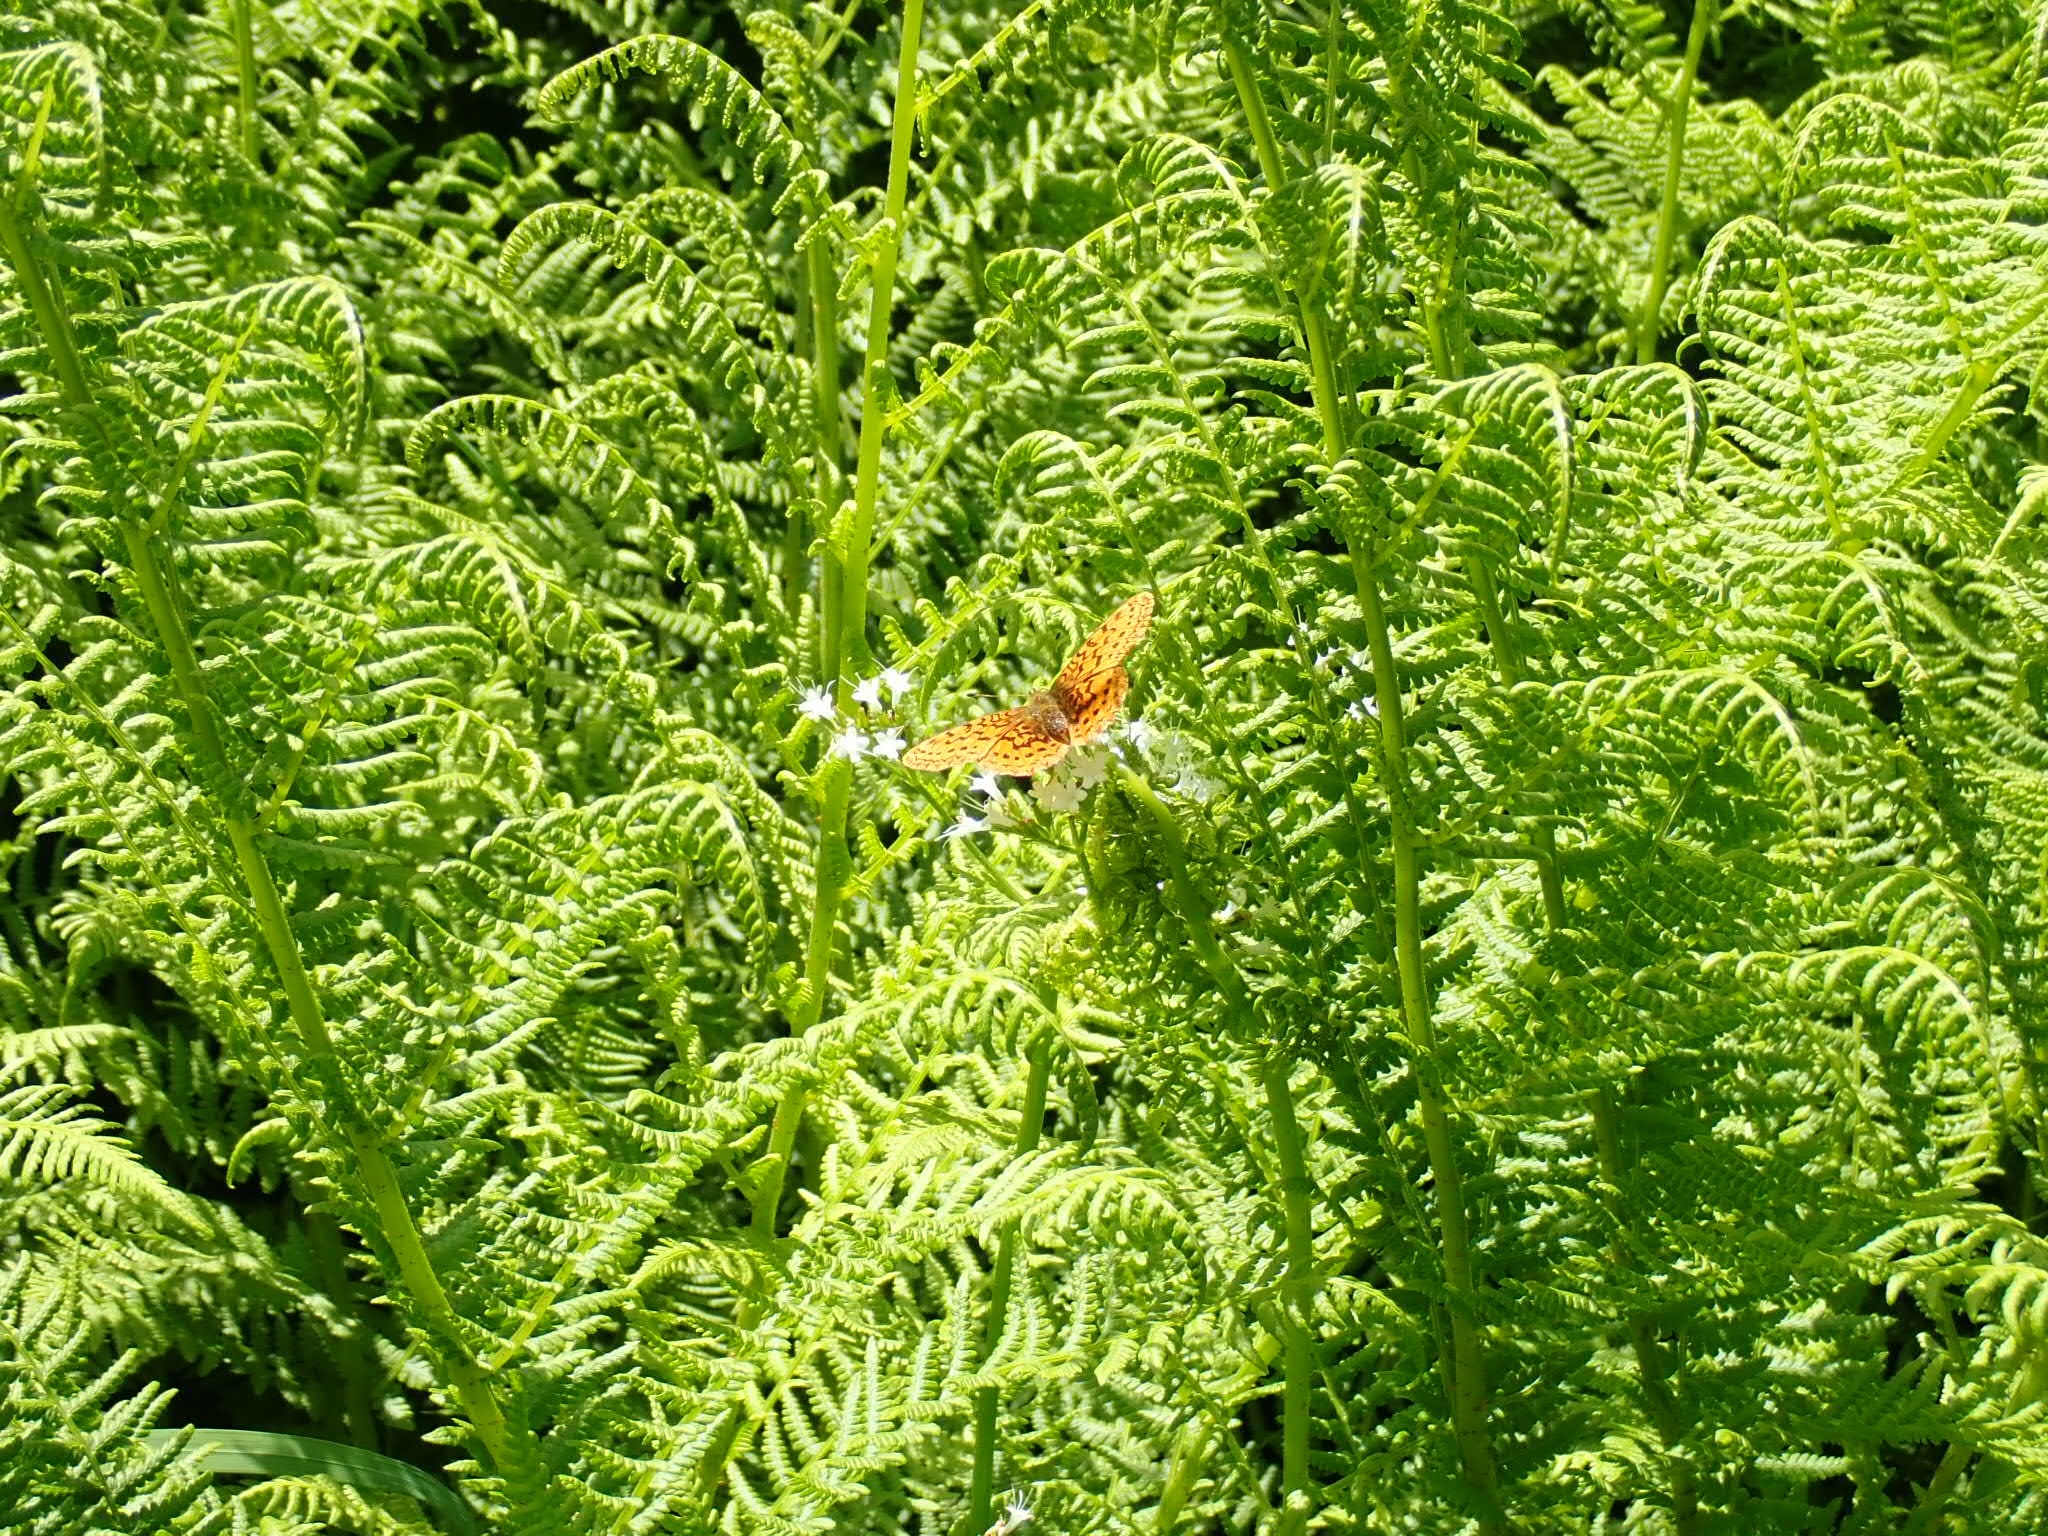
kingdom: Animalia
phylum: Arthropoda
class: Insecta
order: Lepidoptera
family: Nymphalidae
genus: Boloria
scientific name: Boloria epithore
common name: Pacific fritillary
